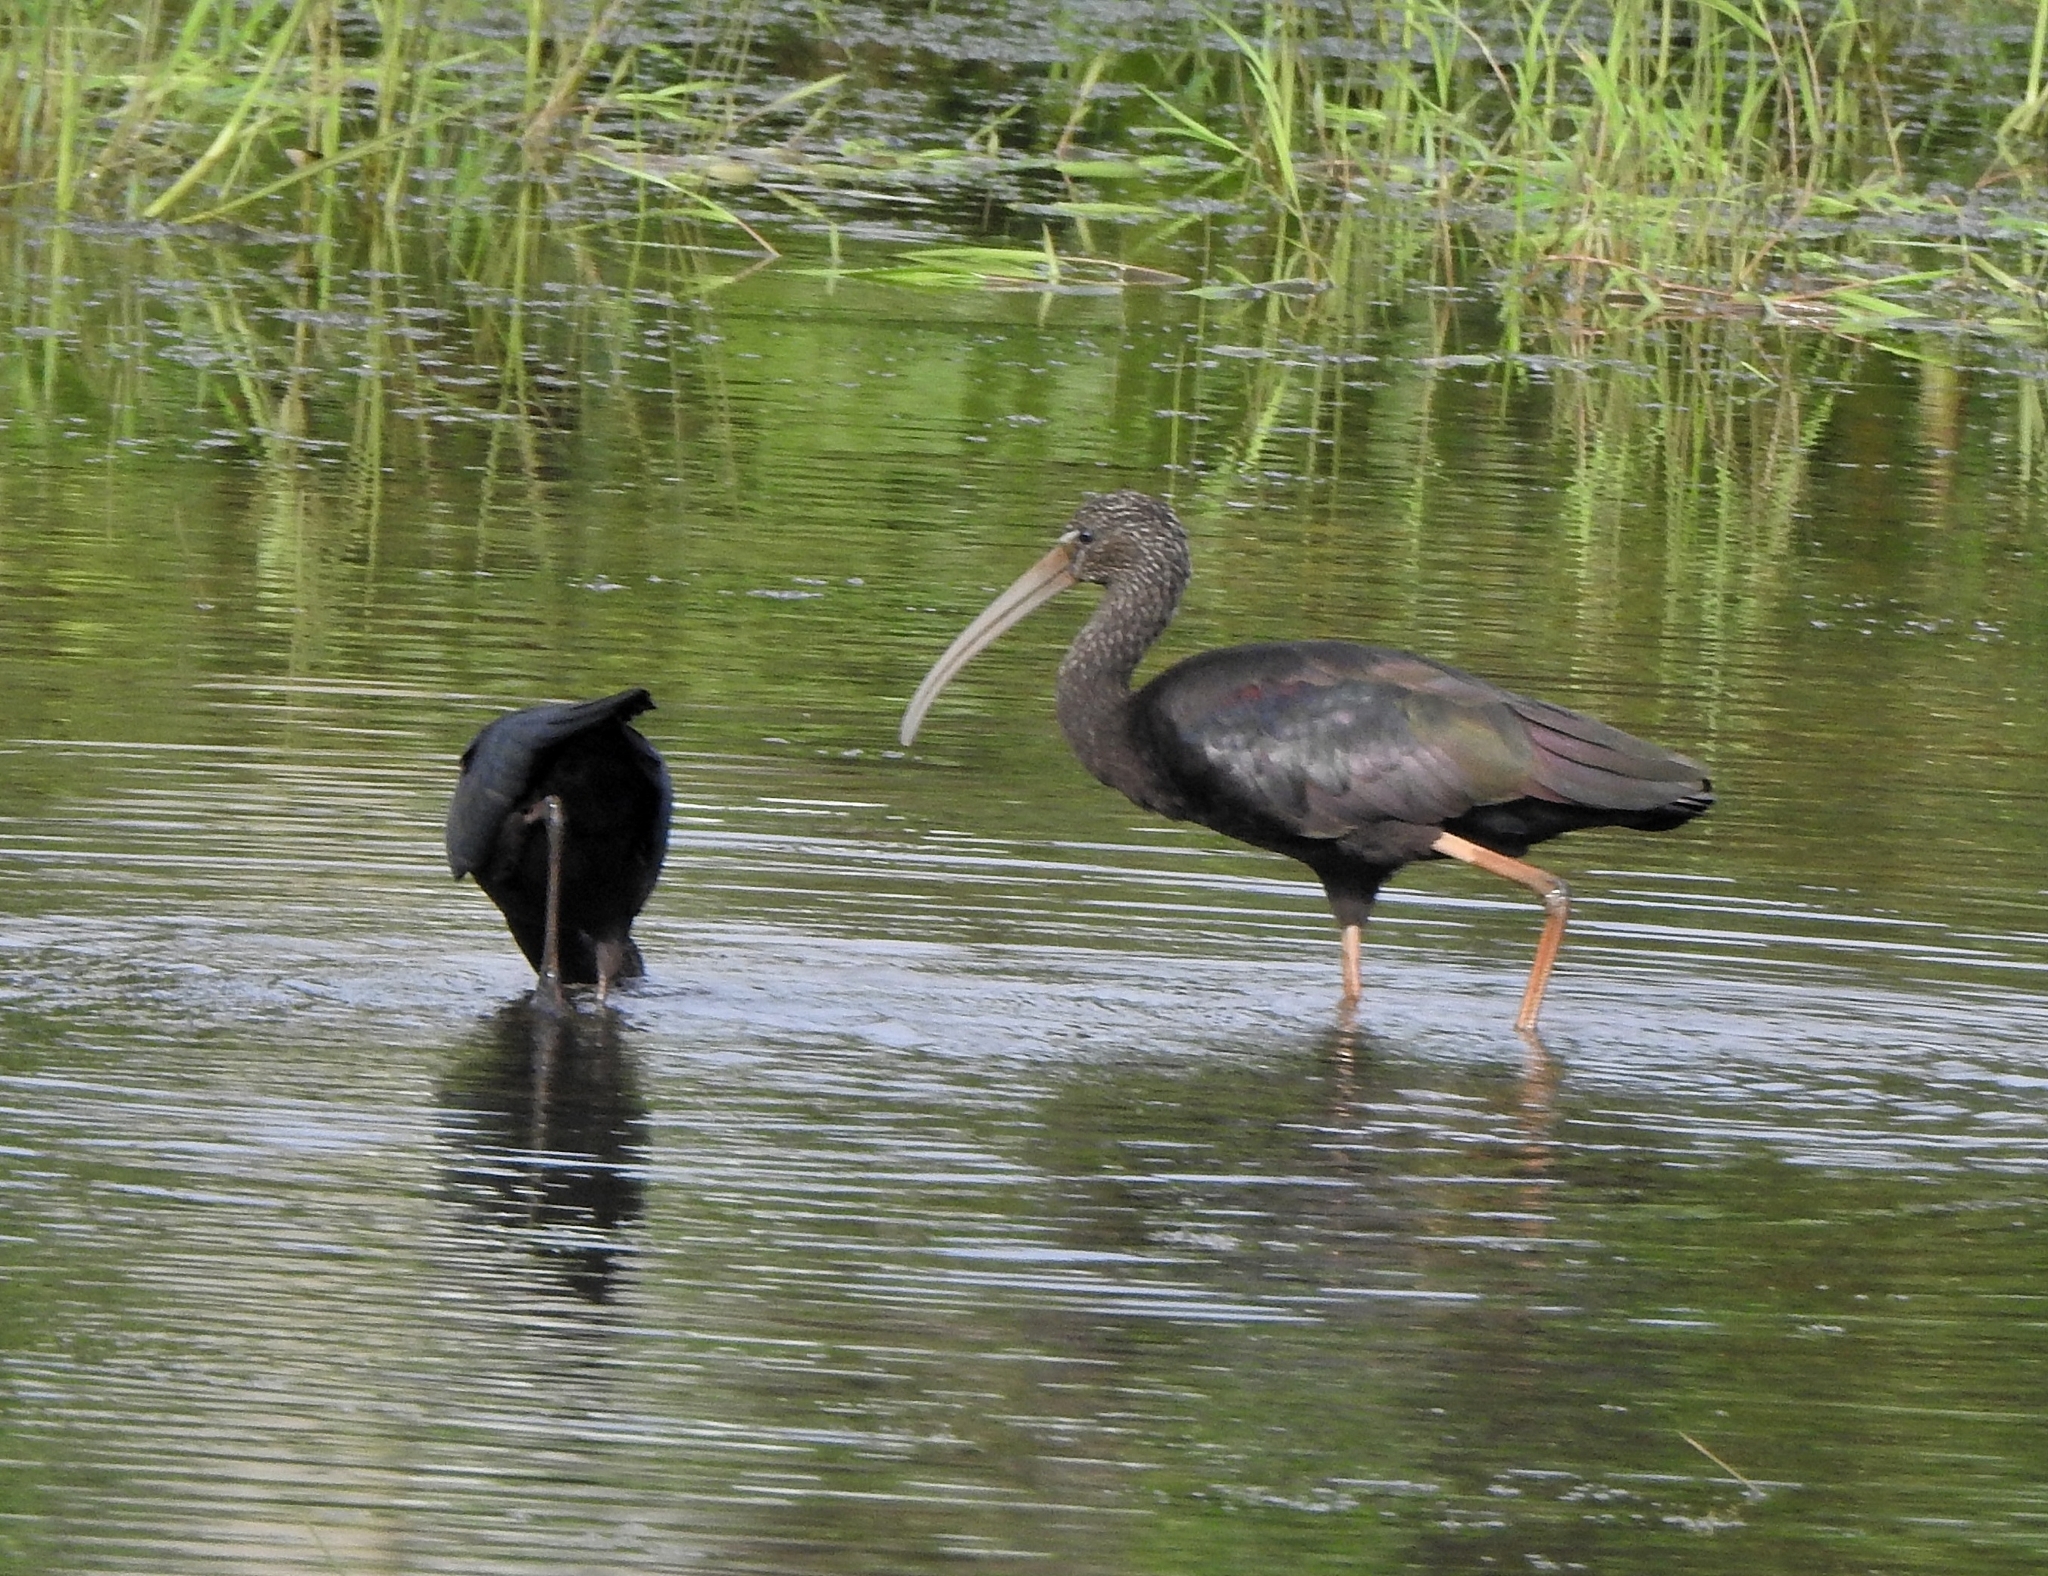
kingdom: Animalia
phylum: Chordata
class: Aves
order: Pelecaniformes
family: Threskiornithidae
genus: Plegadis
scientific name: Plegadis falcinellus
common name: Glossy ibis
